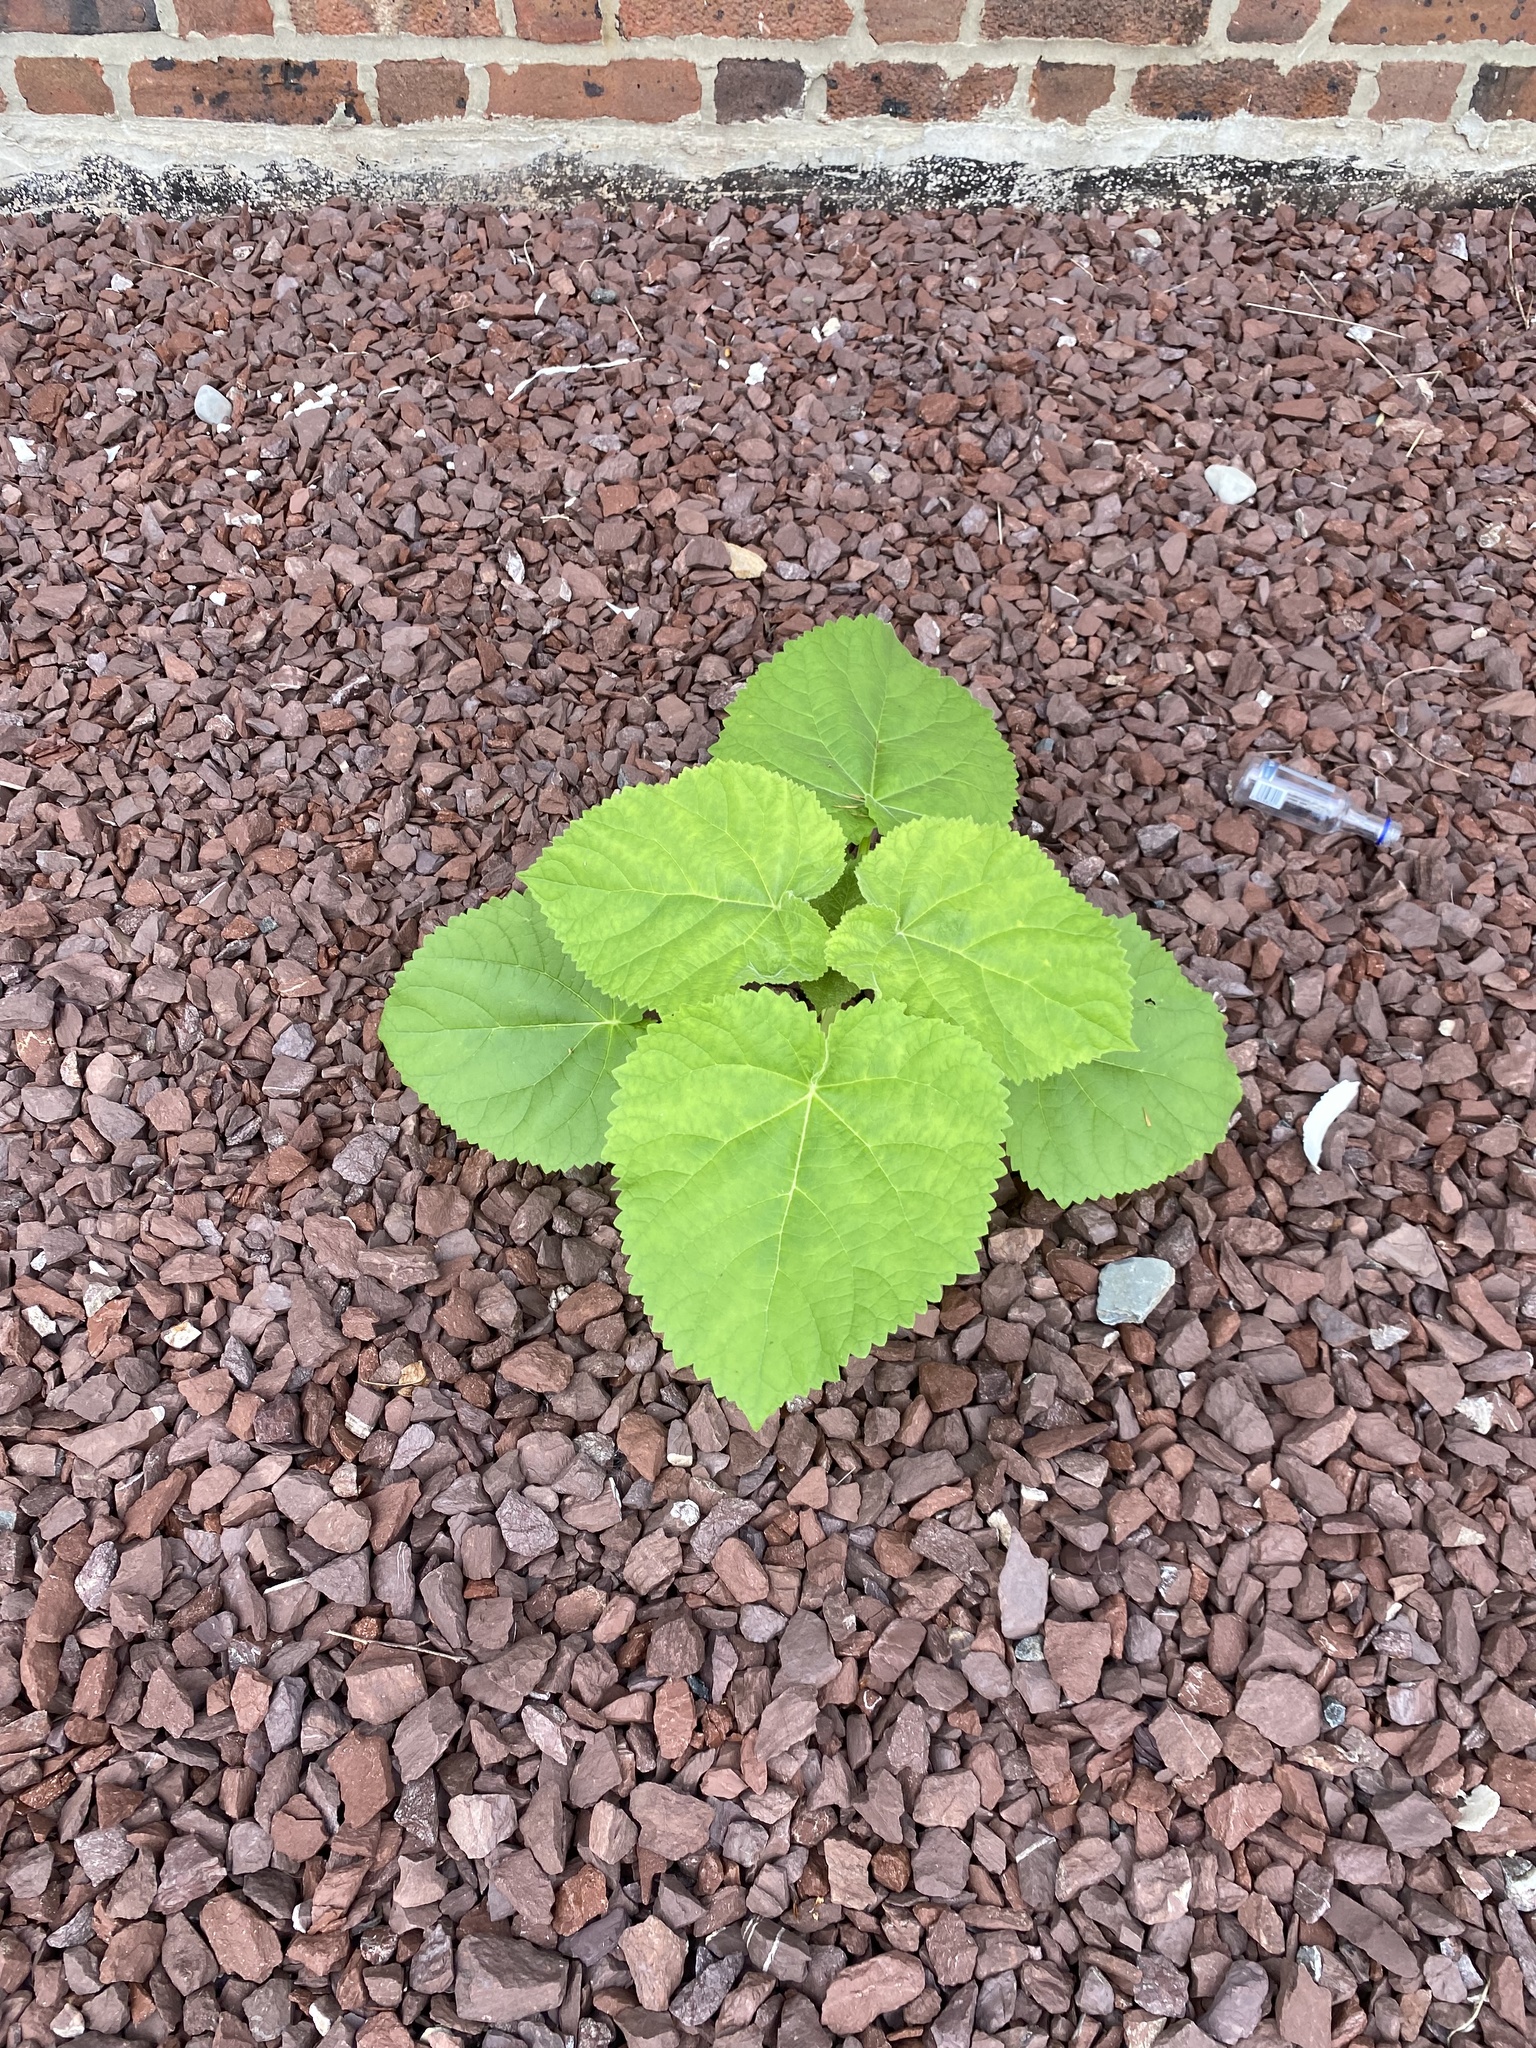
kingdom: Plantae
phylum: Tracheophyta
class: Magnoliopsida
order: Lamiales
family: Paulowniaceae
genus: Paulownia
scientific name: Paulownia tomentosa
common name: Foxglove-tree
